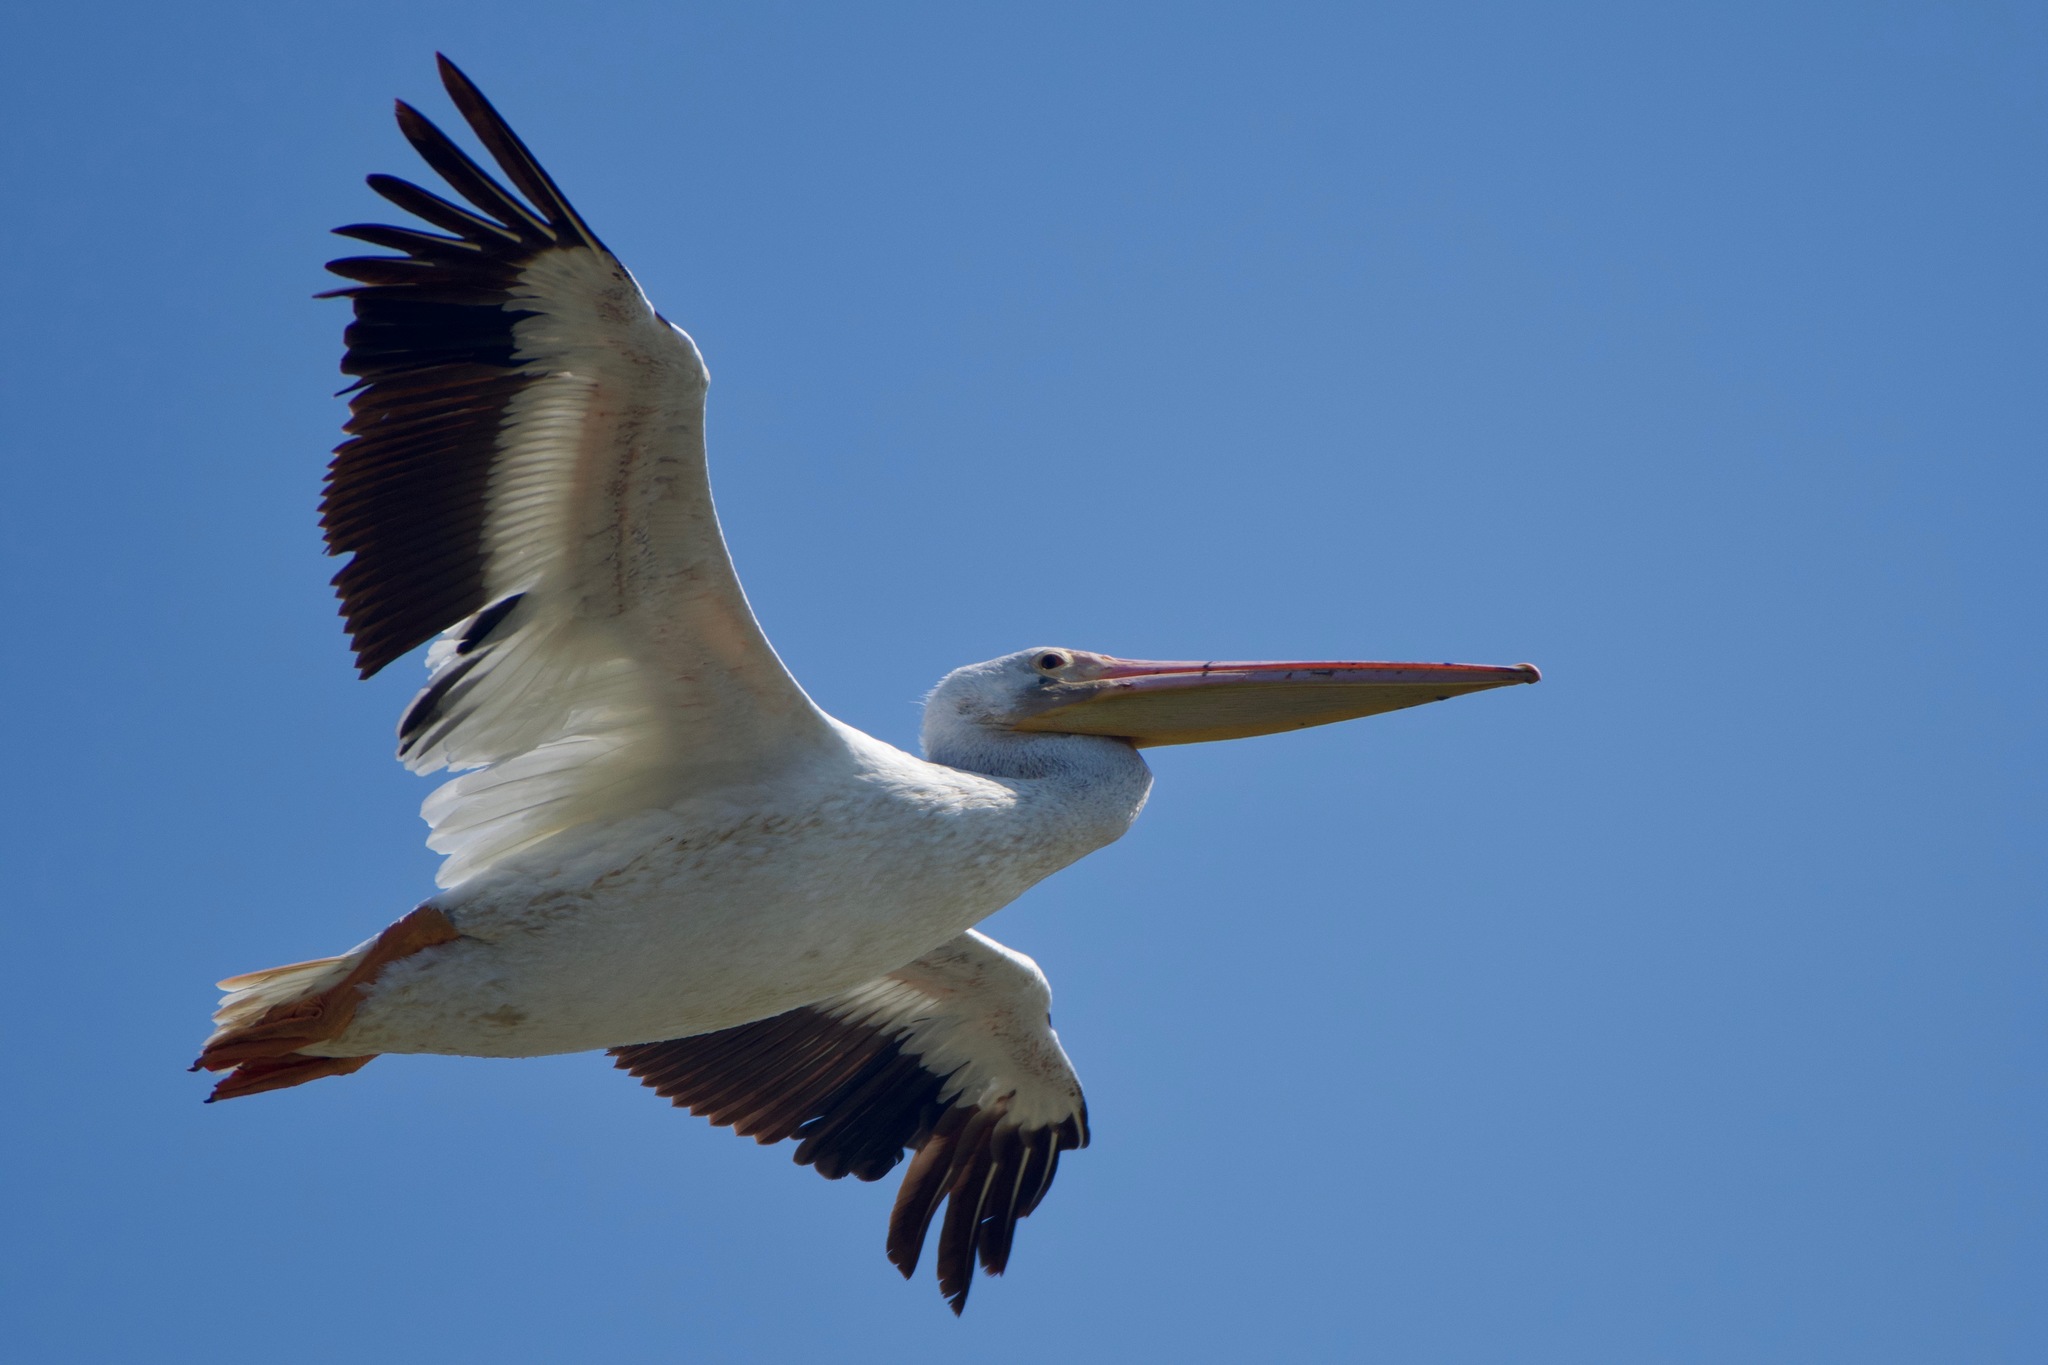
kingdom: Animalia
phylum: Chordata
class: Aves
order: Pelecaniformes
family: Pelecanidae
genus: Pelecanus
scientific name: Pelecanus erythrorhynchos
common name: American white pelican
